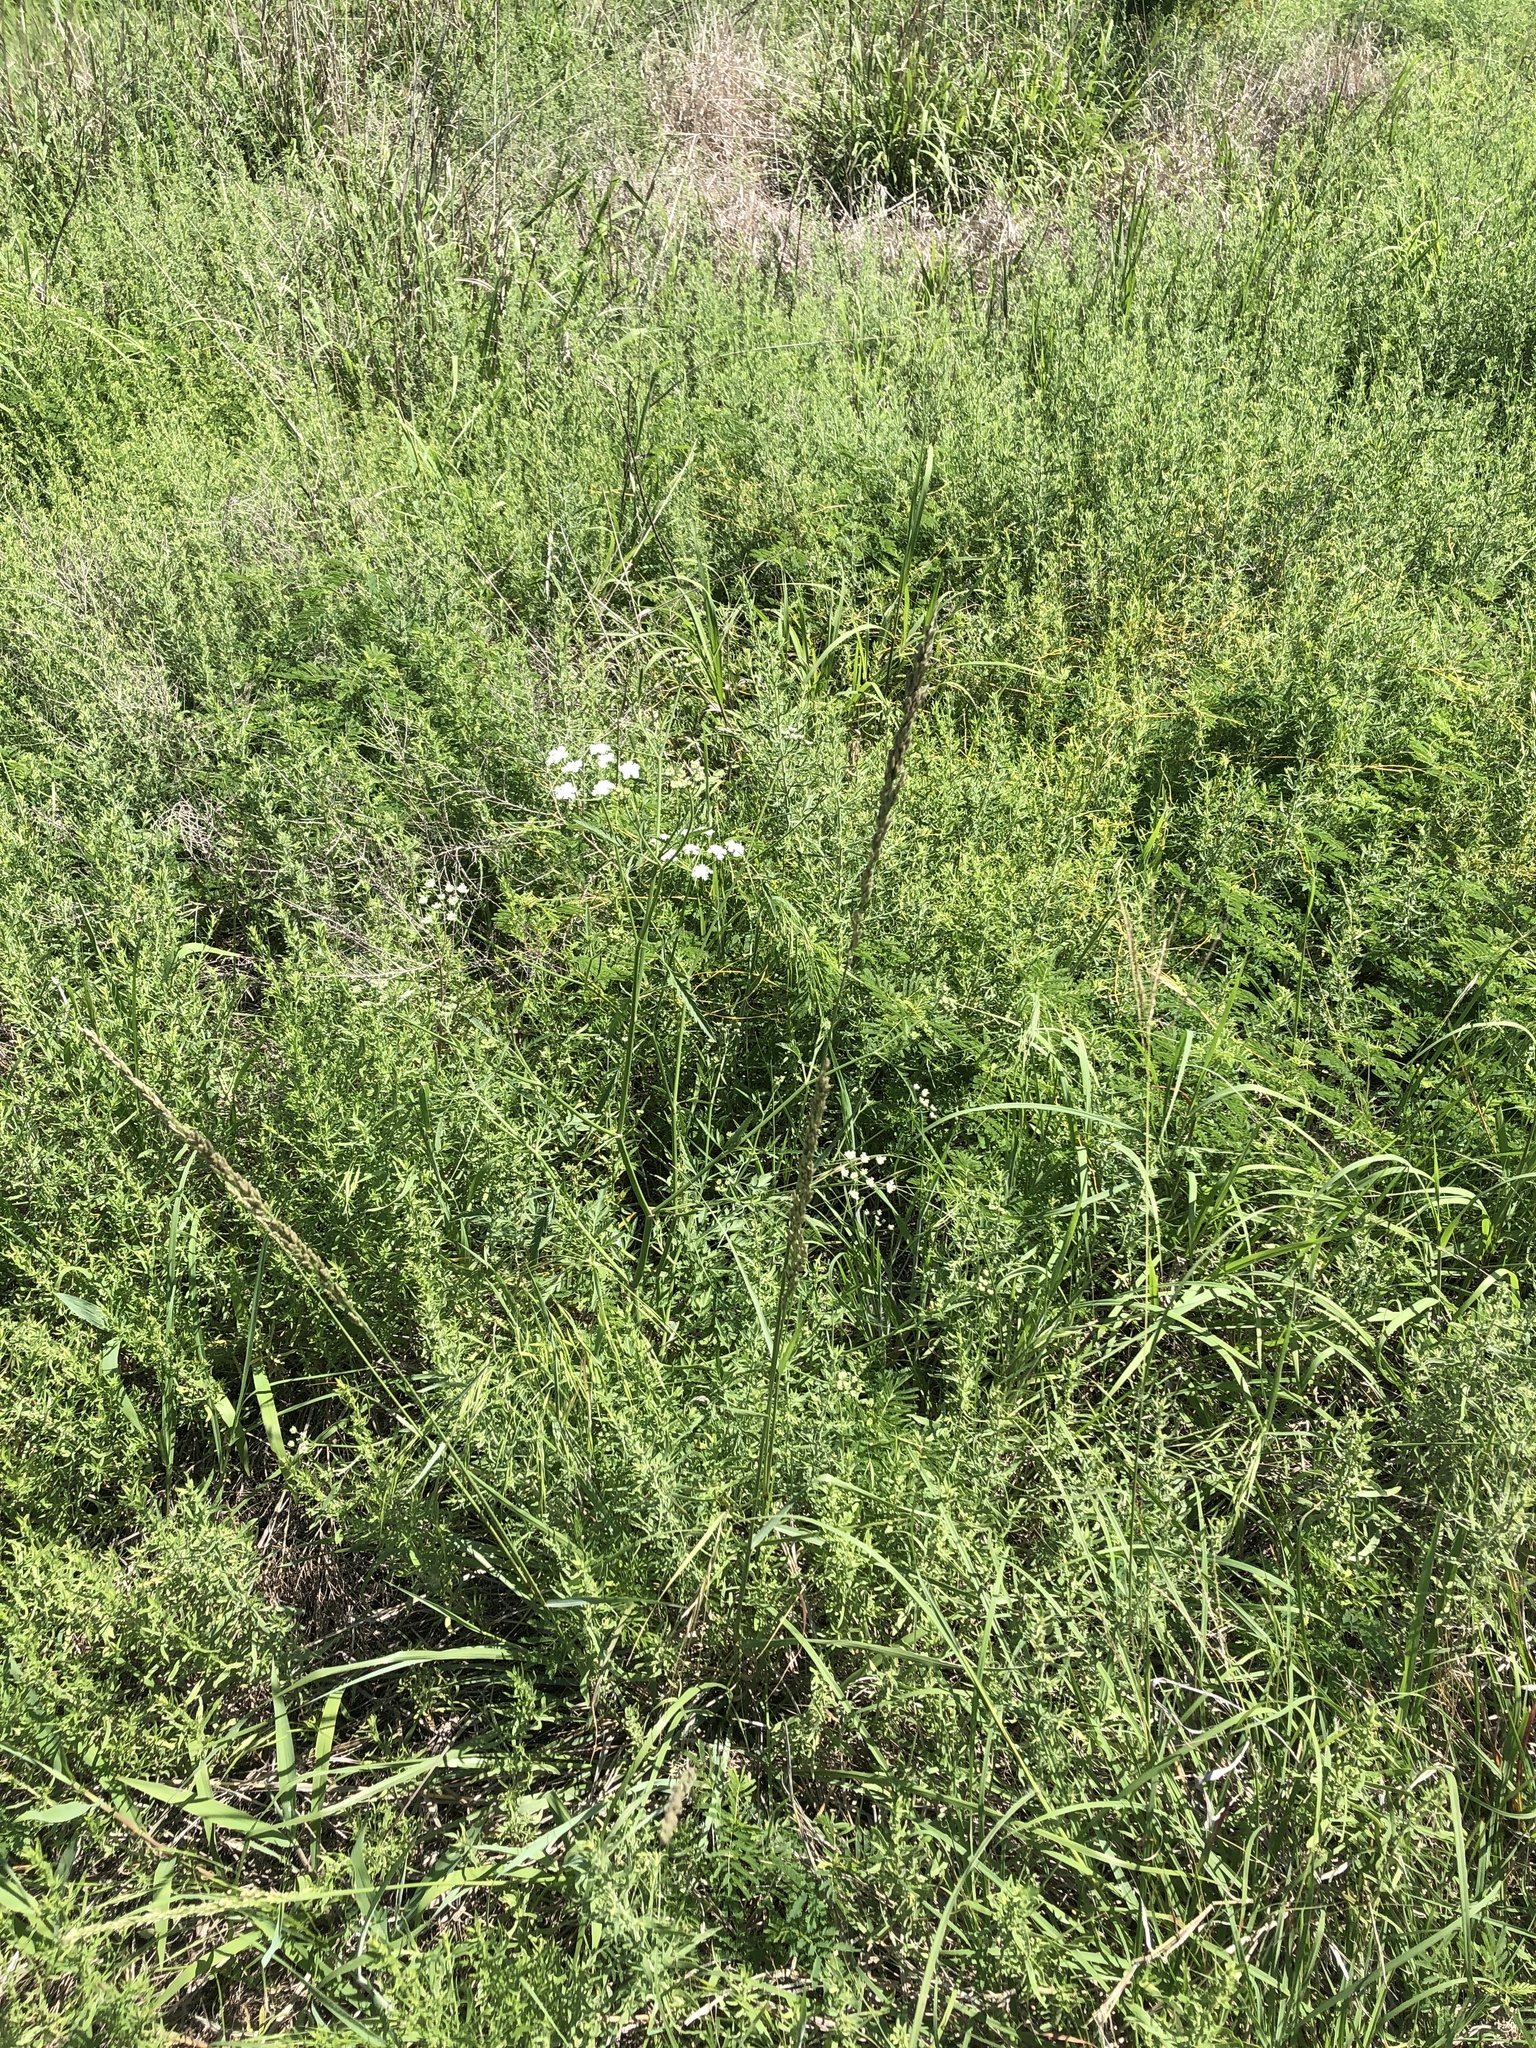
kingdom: Plantae
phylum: Tracheophyta
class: Liliopsida
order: Poales
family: Poaceae
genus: Tridens
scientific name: Tridens albescens
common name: White tridens
